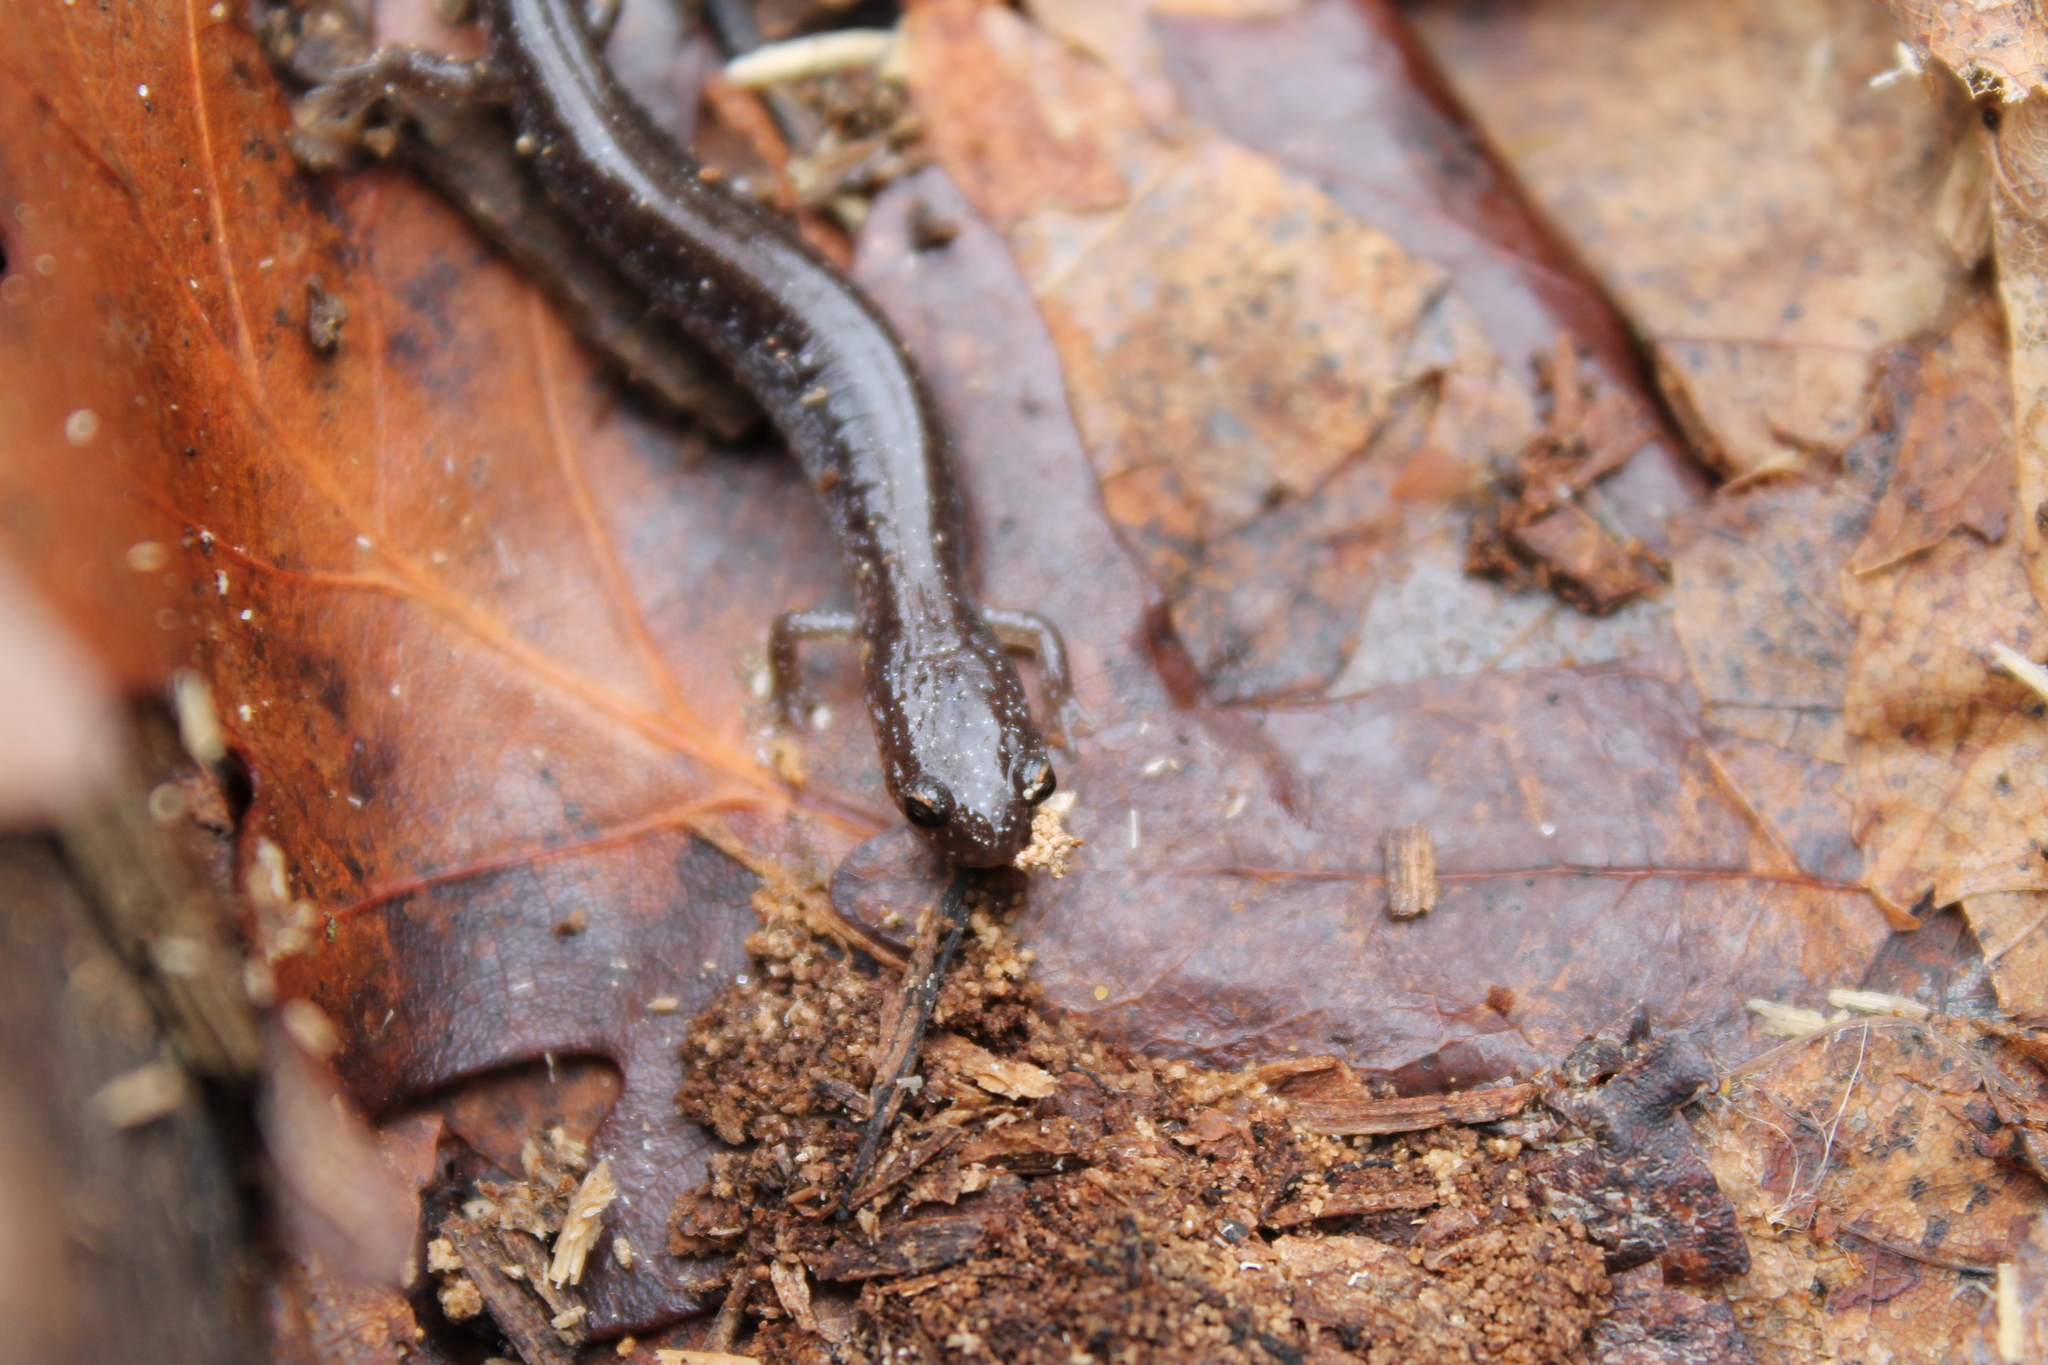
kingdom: Animalia
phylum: Chordata
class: Amphibia
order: Caudata
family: Plethodontidae
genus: Plethodon
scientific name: Plethodon cinereus
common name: Redback salamander
